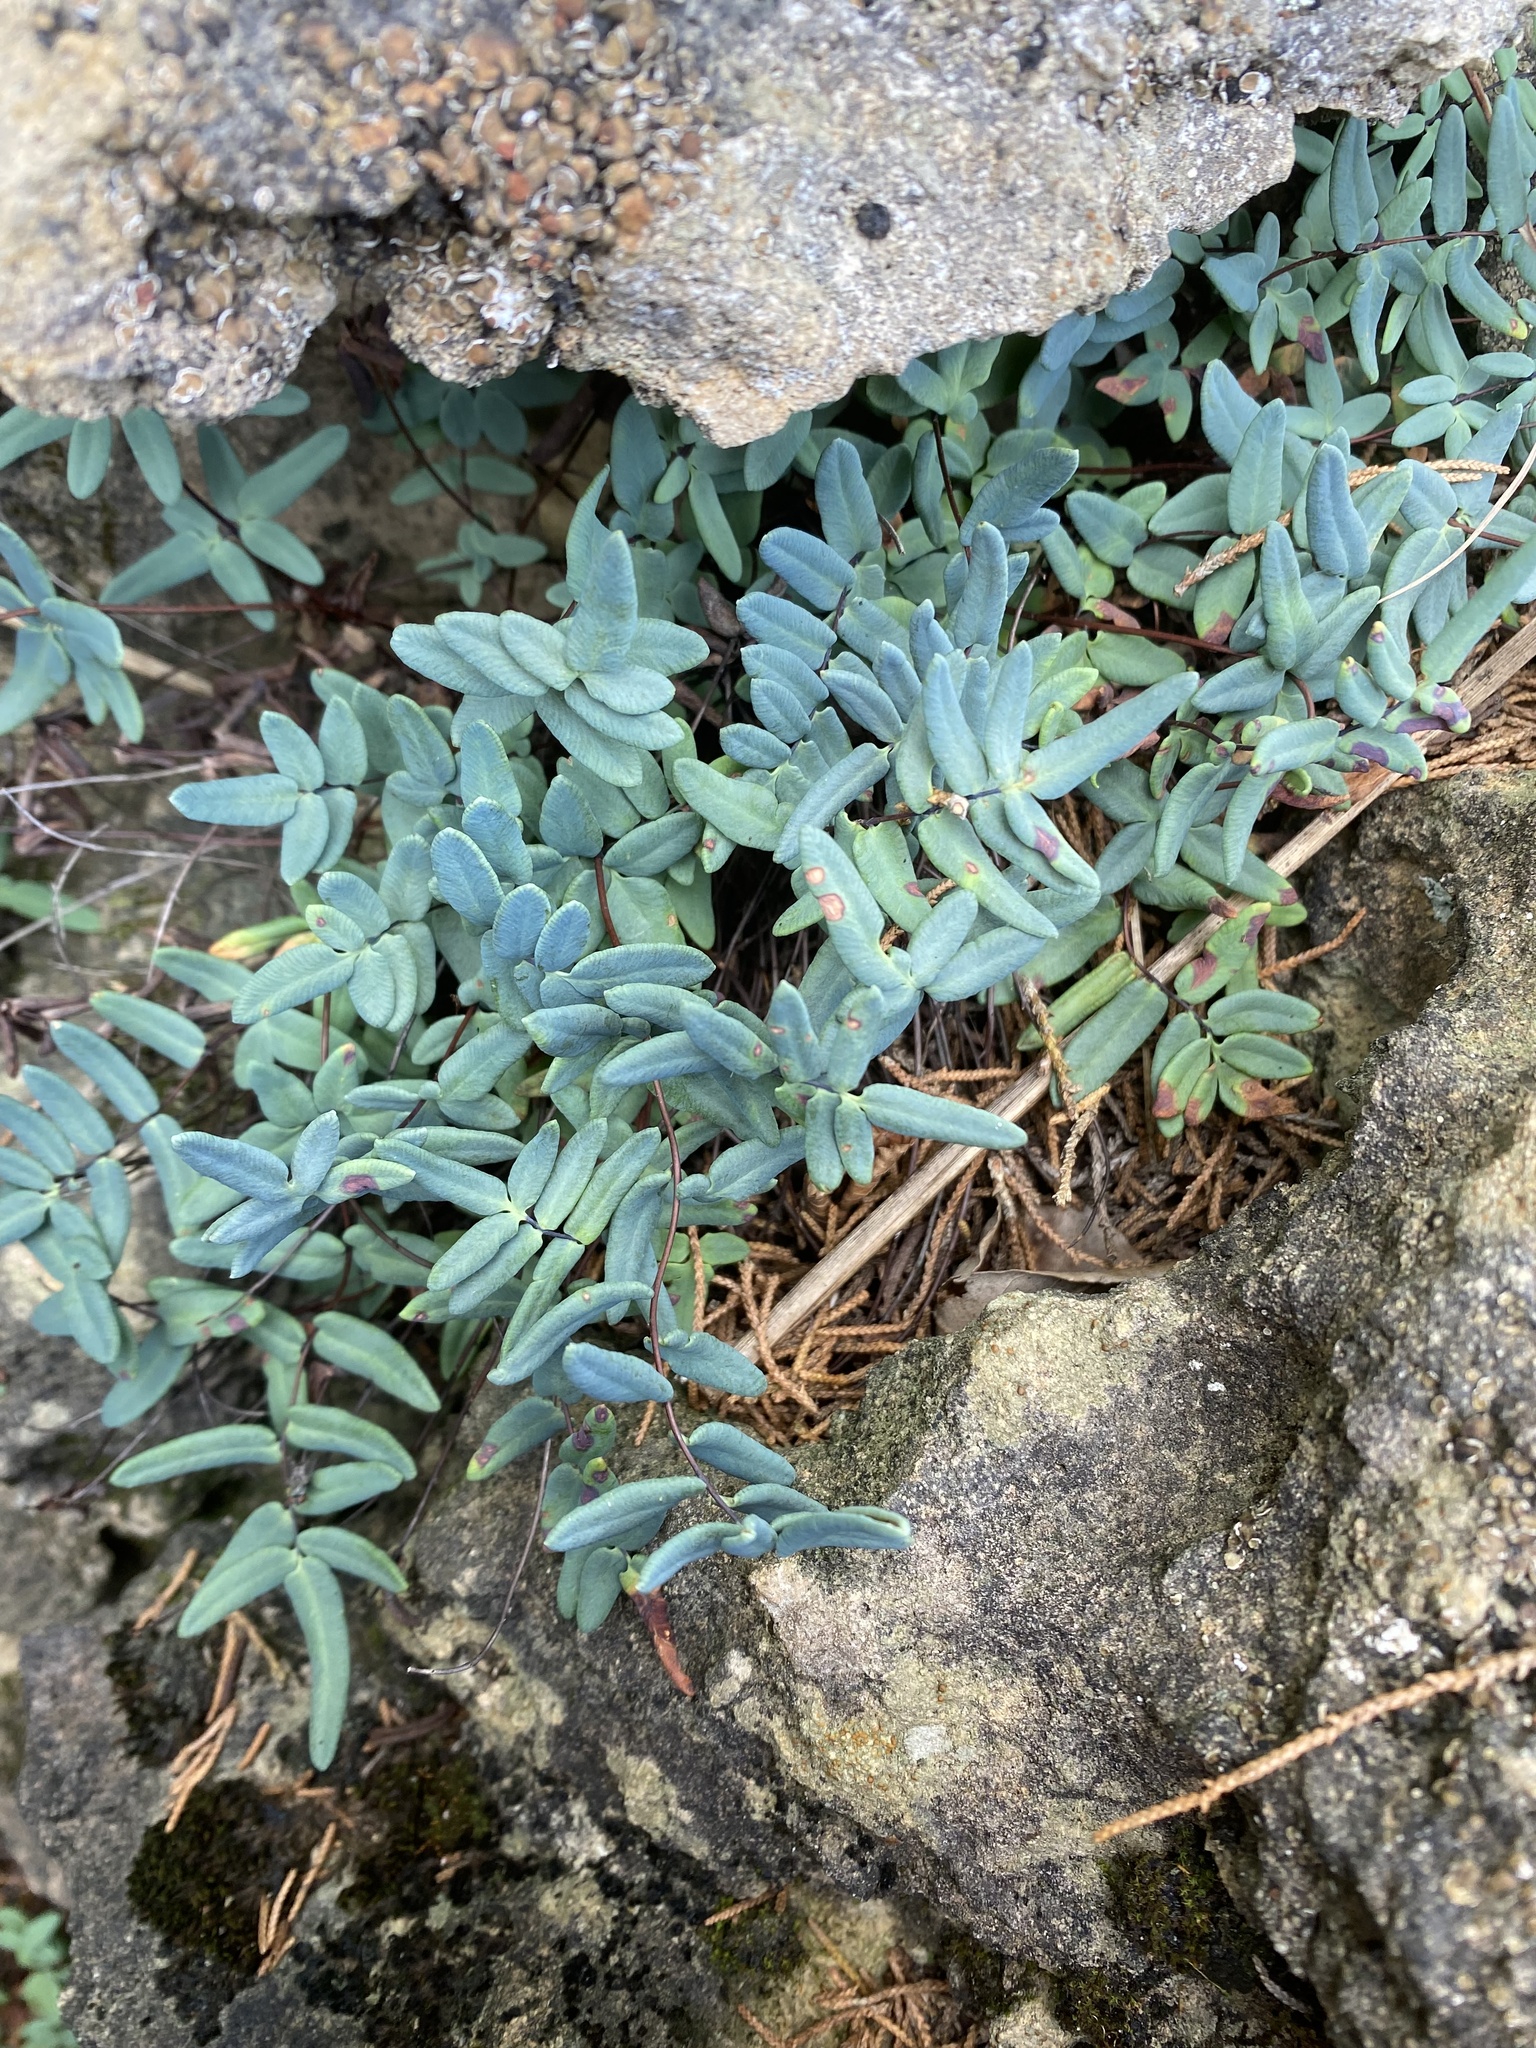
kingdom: Plantae
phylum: Tracheophyta
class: Polypodiopsida
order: Polypodiales
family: Pteridaceae
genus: Pellaea
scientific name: Pellaea glabella
